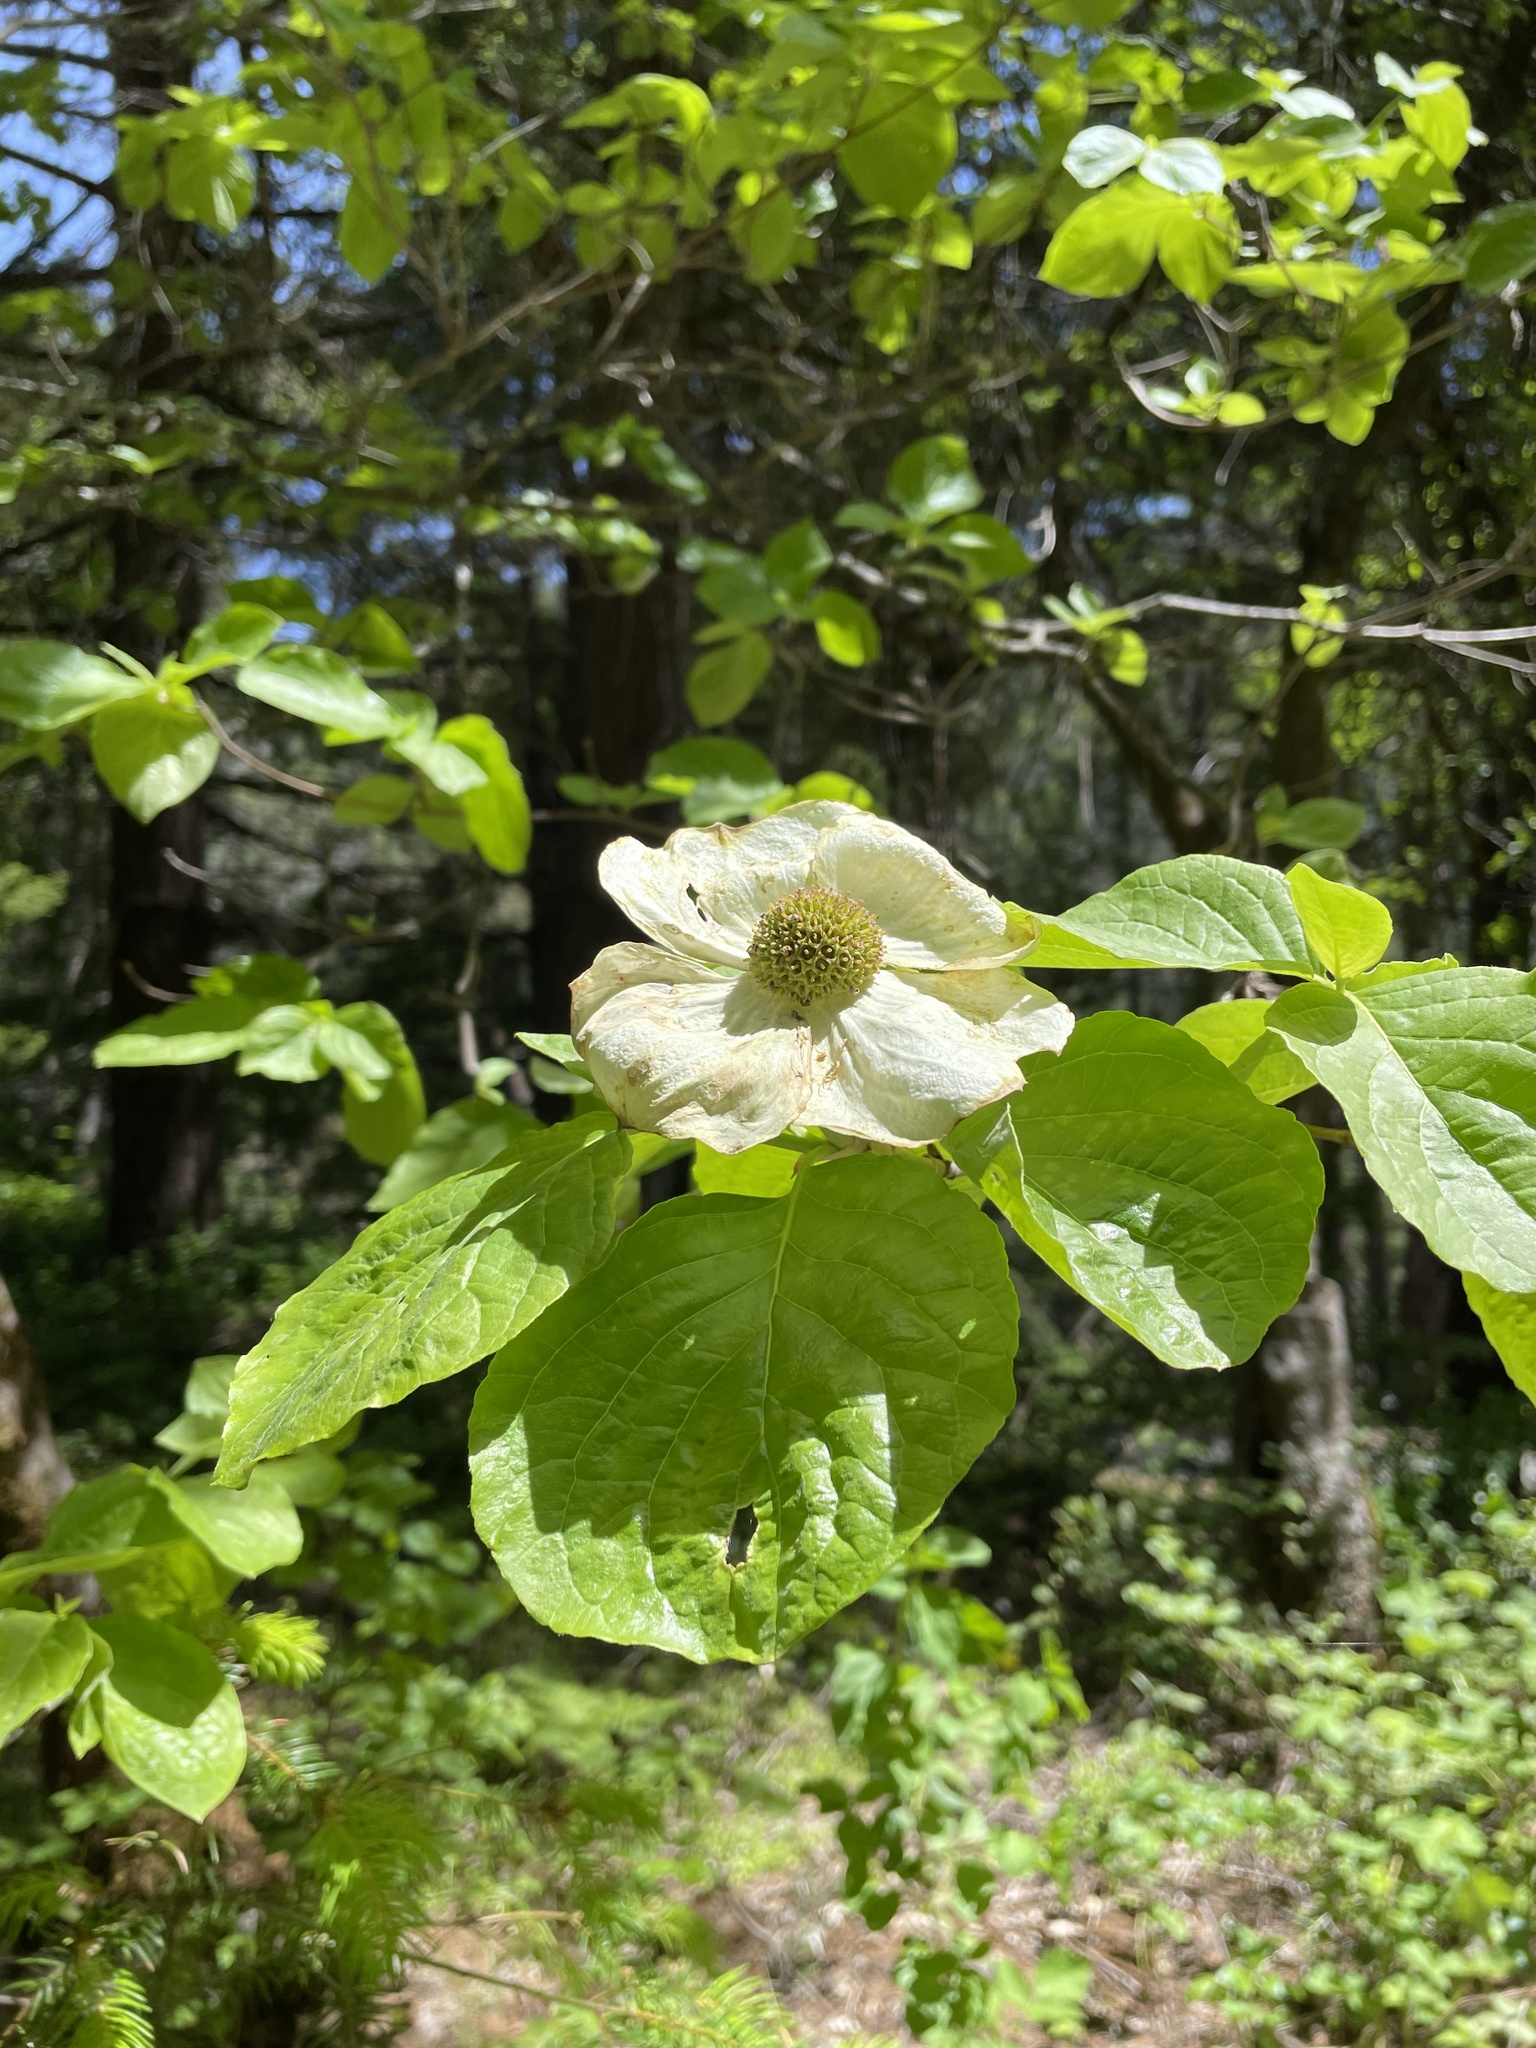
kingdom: Plantae
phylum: Tracheophyta
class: Magnoliopsida
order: Cornales
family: Cornaceae
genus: Cornus
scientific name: Cornus nuttallii
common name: Pacific dogwood
